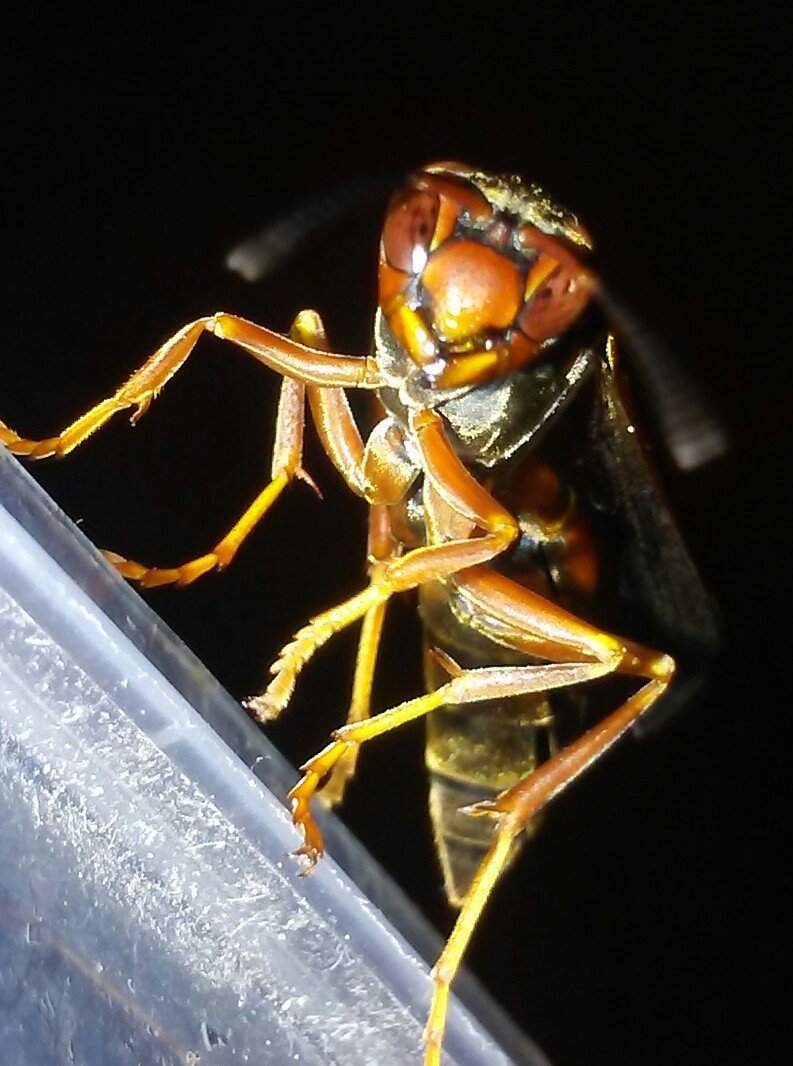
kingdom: Animalia
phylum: Arthropoda
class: Insecta
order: Hymenoptera
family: Eumenidae
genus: Polistes
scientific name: Polistes fuscatus
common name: Dark paper wasp
